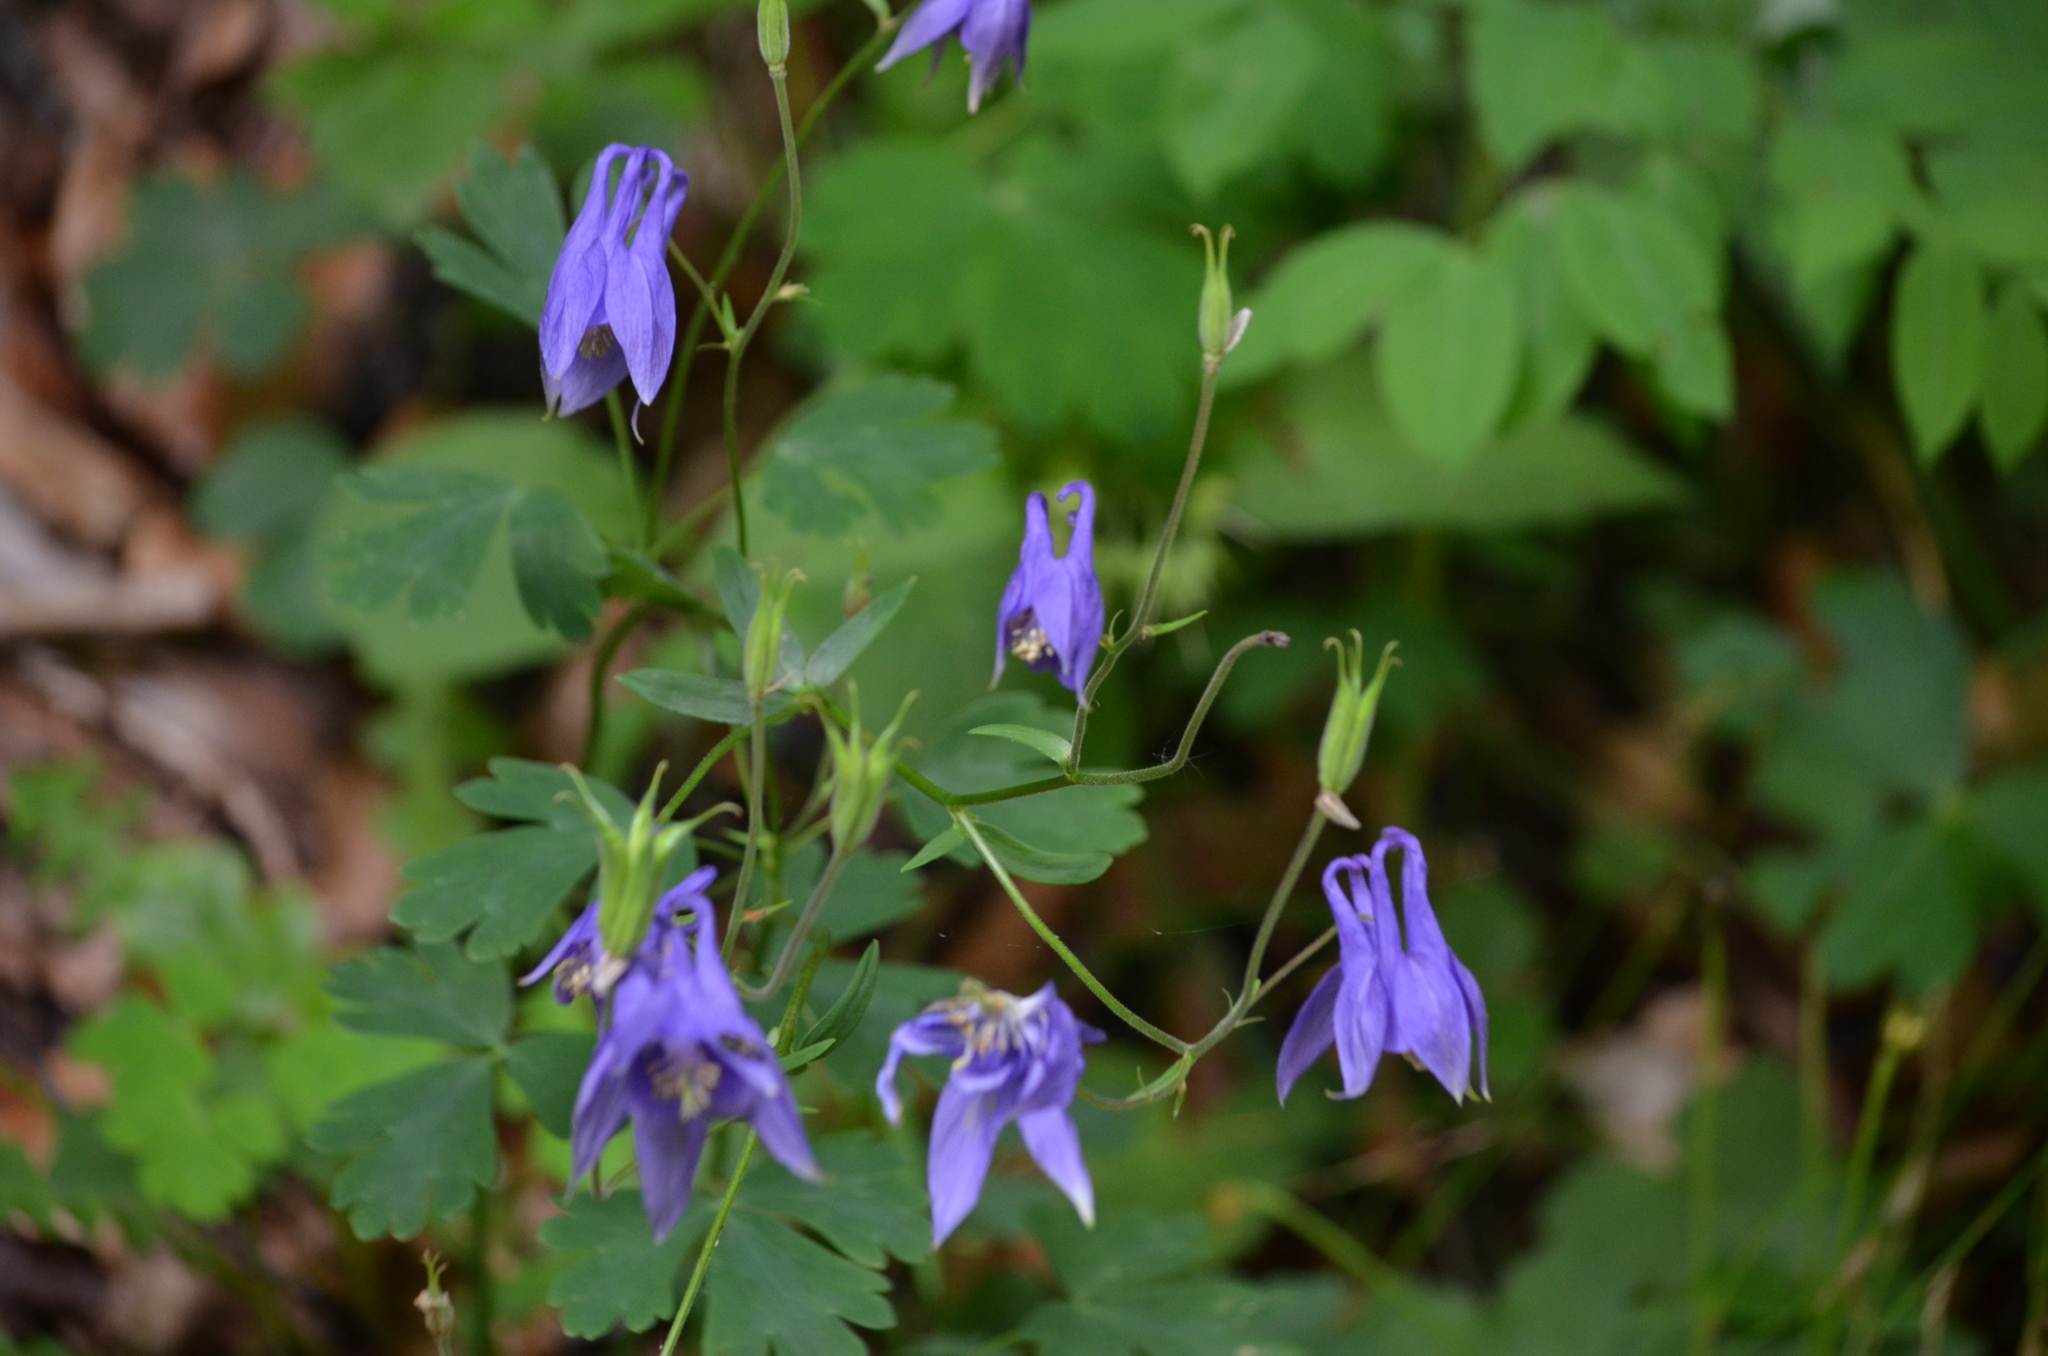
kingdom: Plantae
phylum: Tracheophyta
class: Magnoliopsida
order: Ranunculales
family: Ranunculaceae
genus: Aquilegia
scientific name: Aquilegia vulgaris
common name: Columbine
